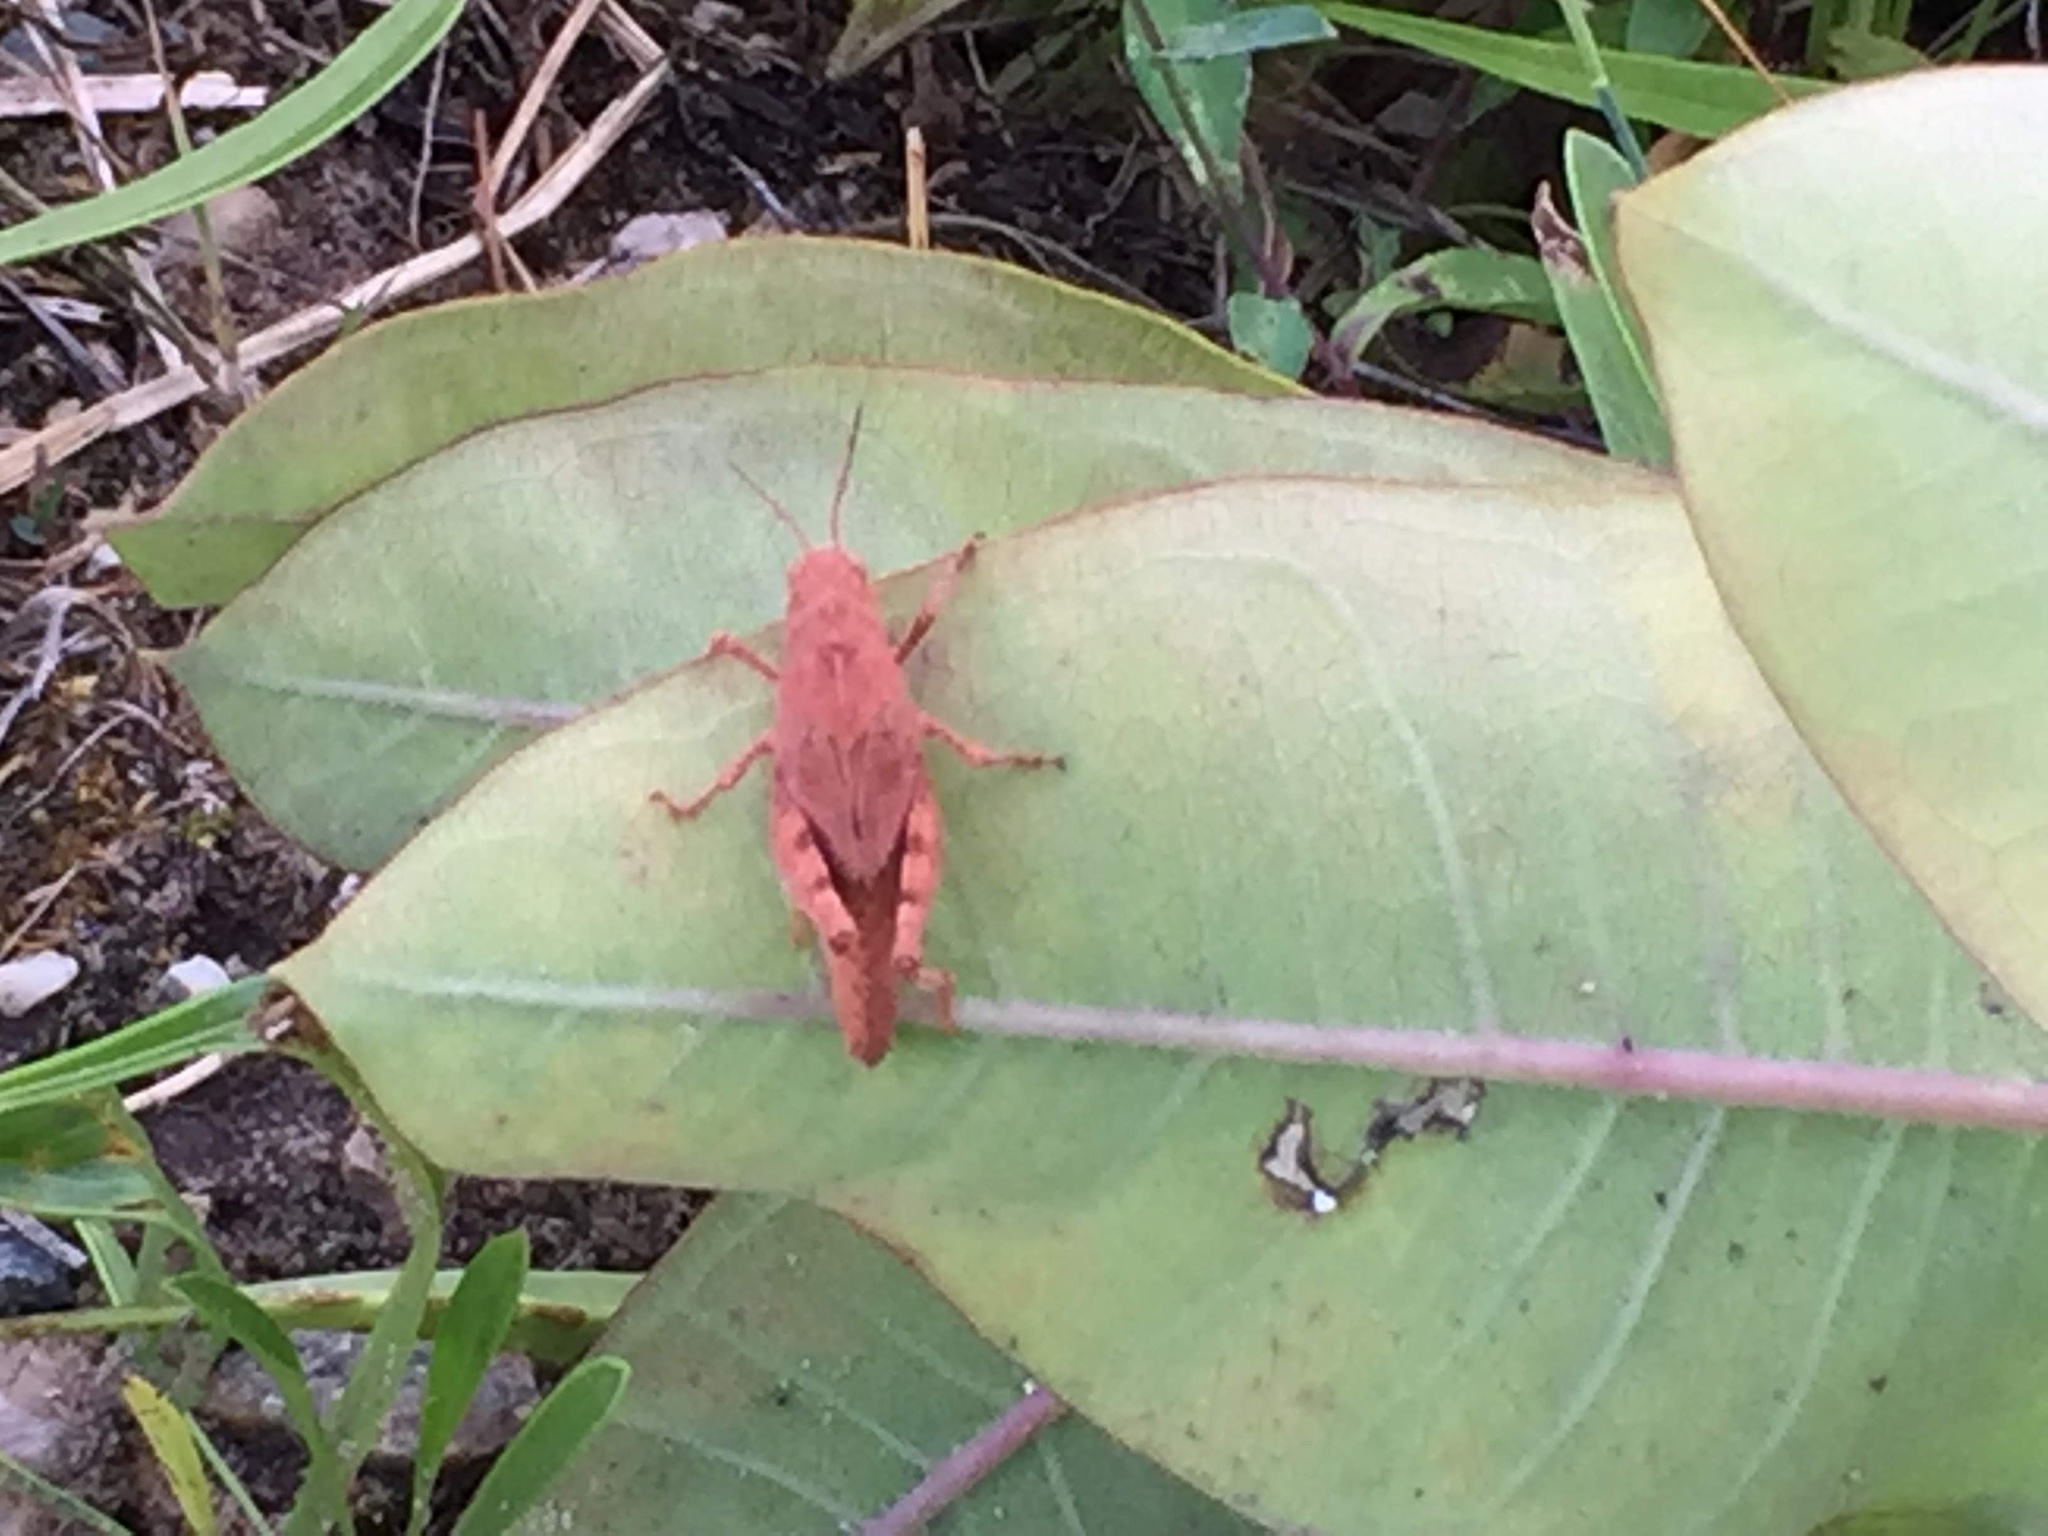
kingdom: Animalia
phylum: Arthropoda
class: Insecta
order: Orthoptera
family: Acrididae
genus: Dissosteira
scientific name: Dissosteira carolina
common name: Carolina grasshopper
